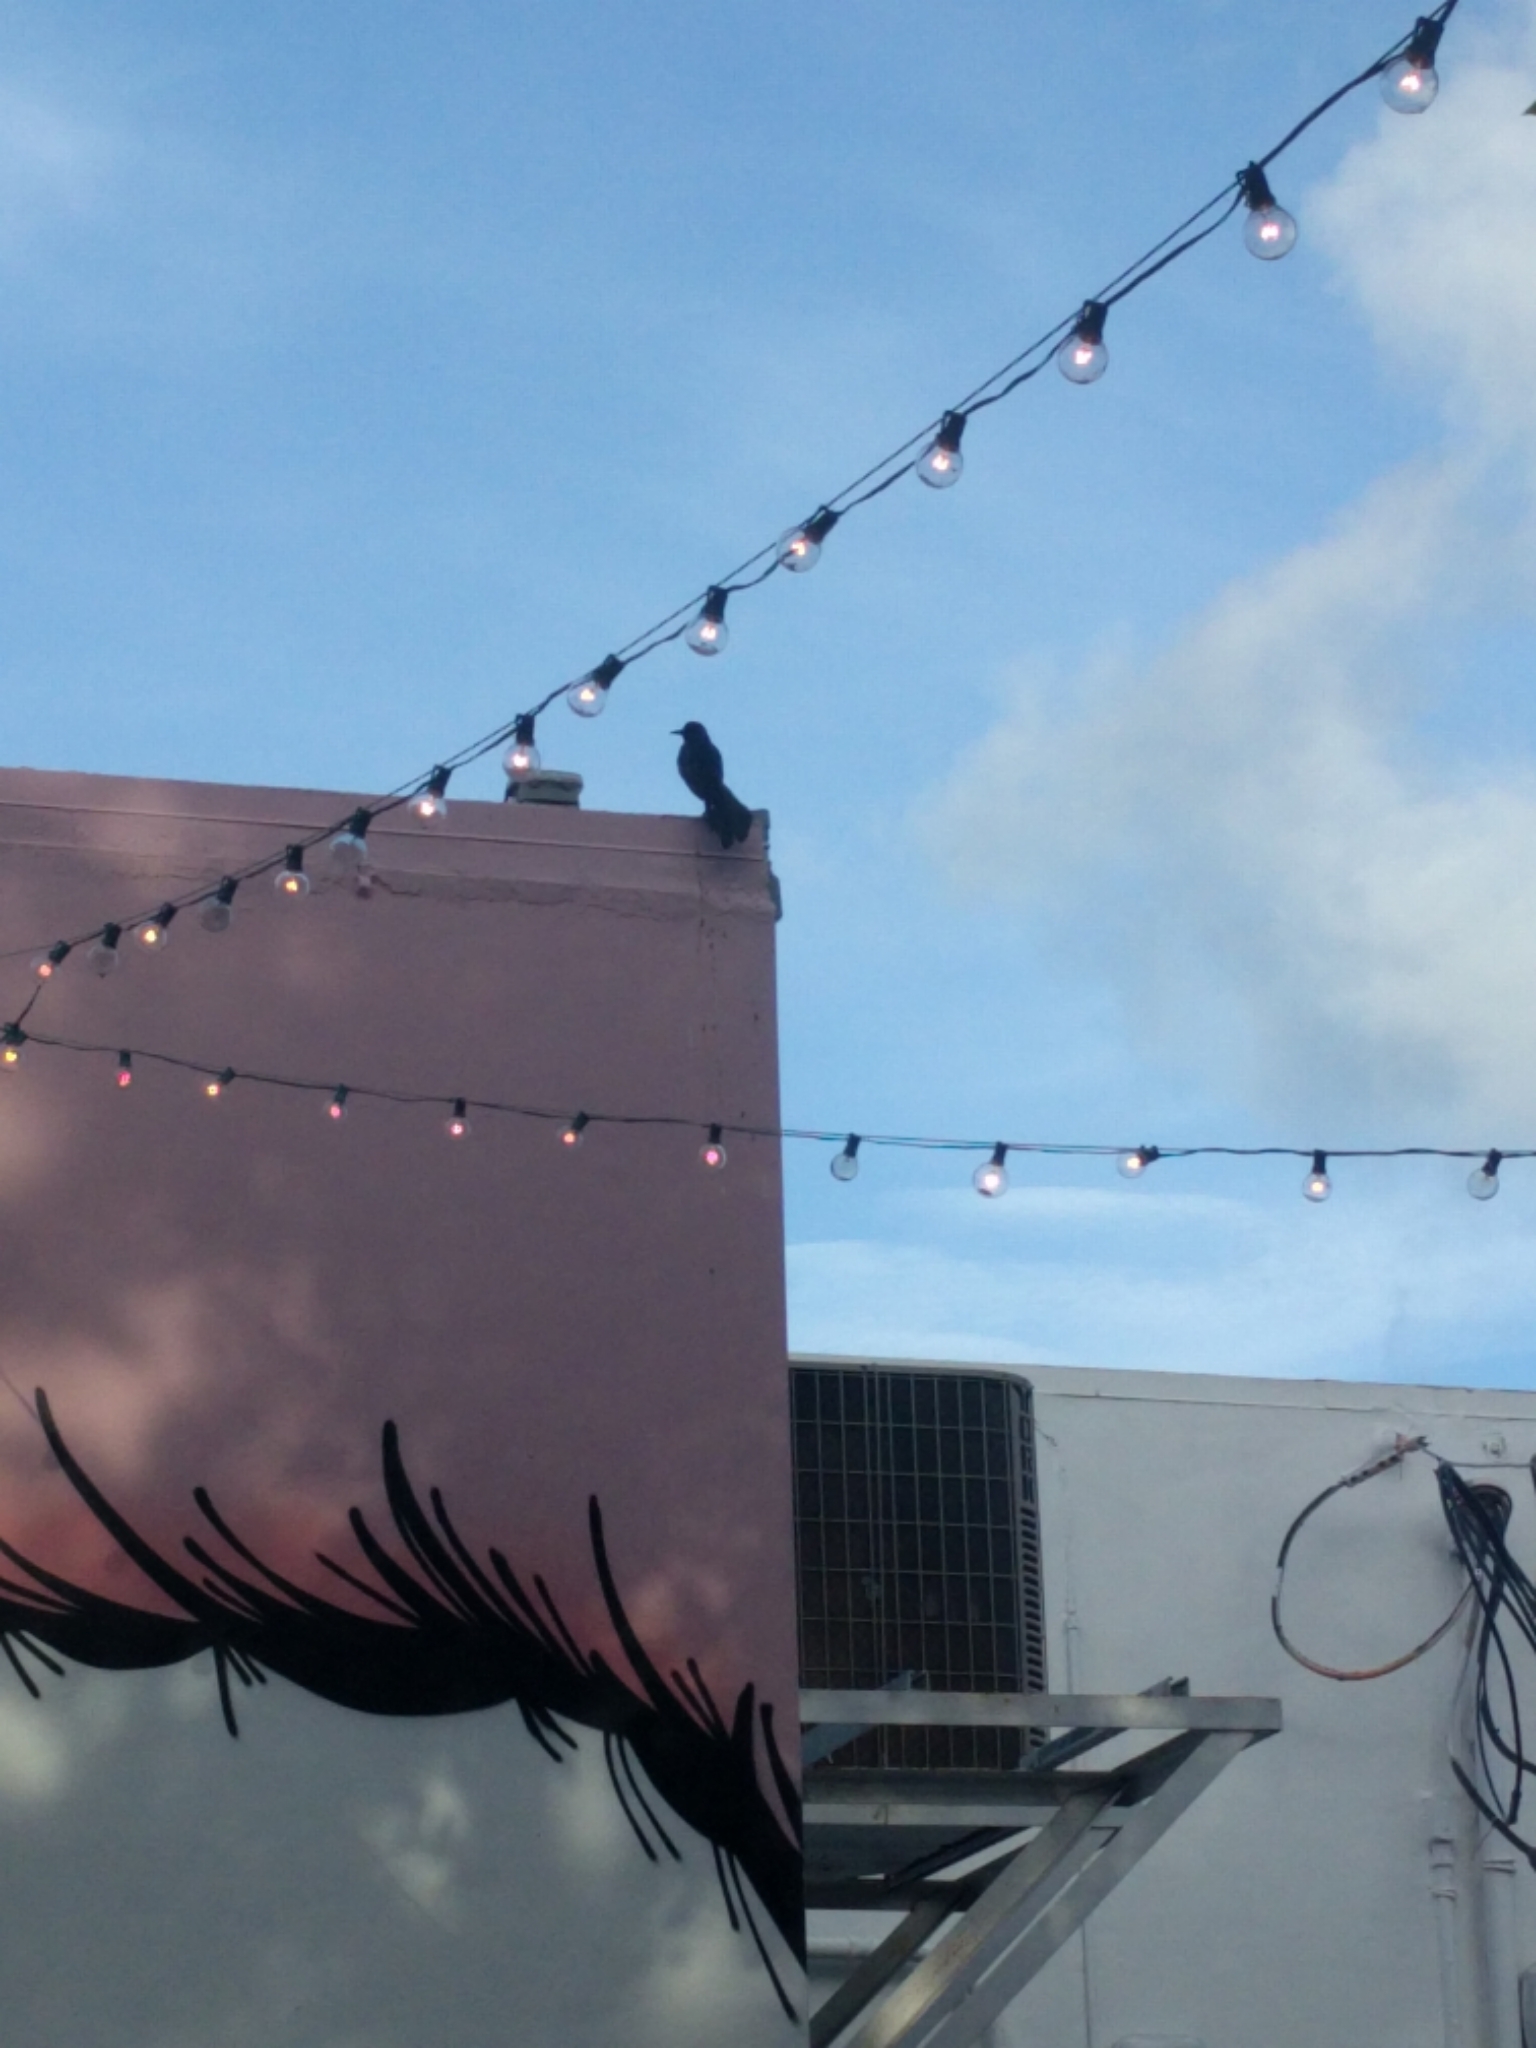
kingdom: Animalia
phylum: Chordata
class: Aves
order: Passeriformes
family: Icteridae
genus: Quiscalus
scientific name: Quiscalus major
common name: Boat-tailed grackle
